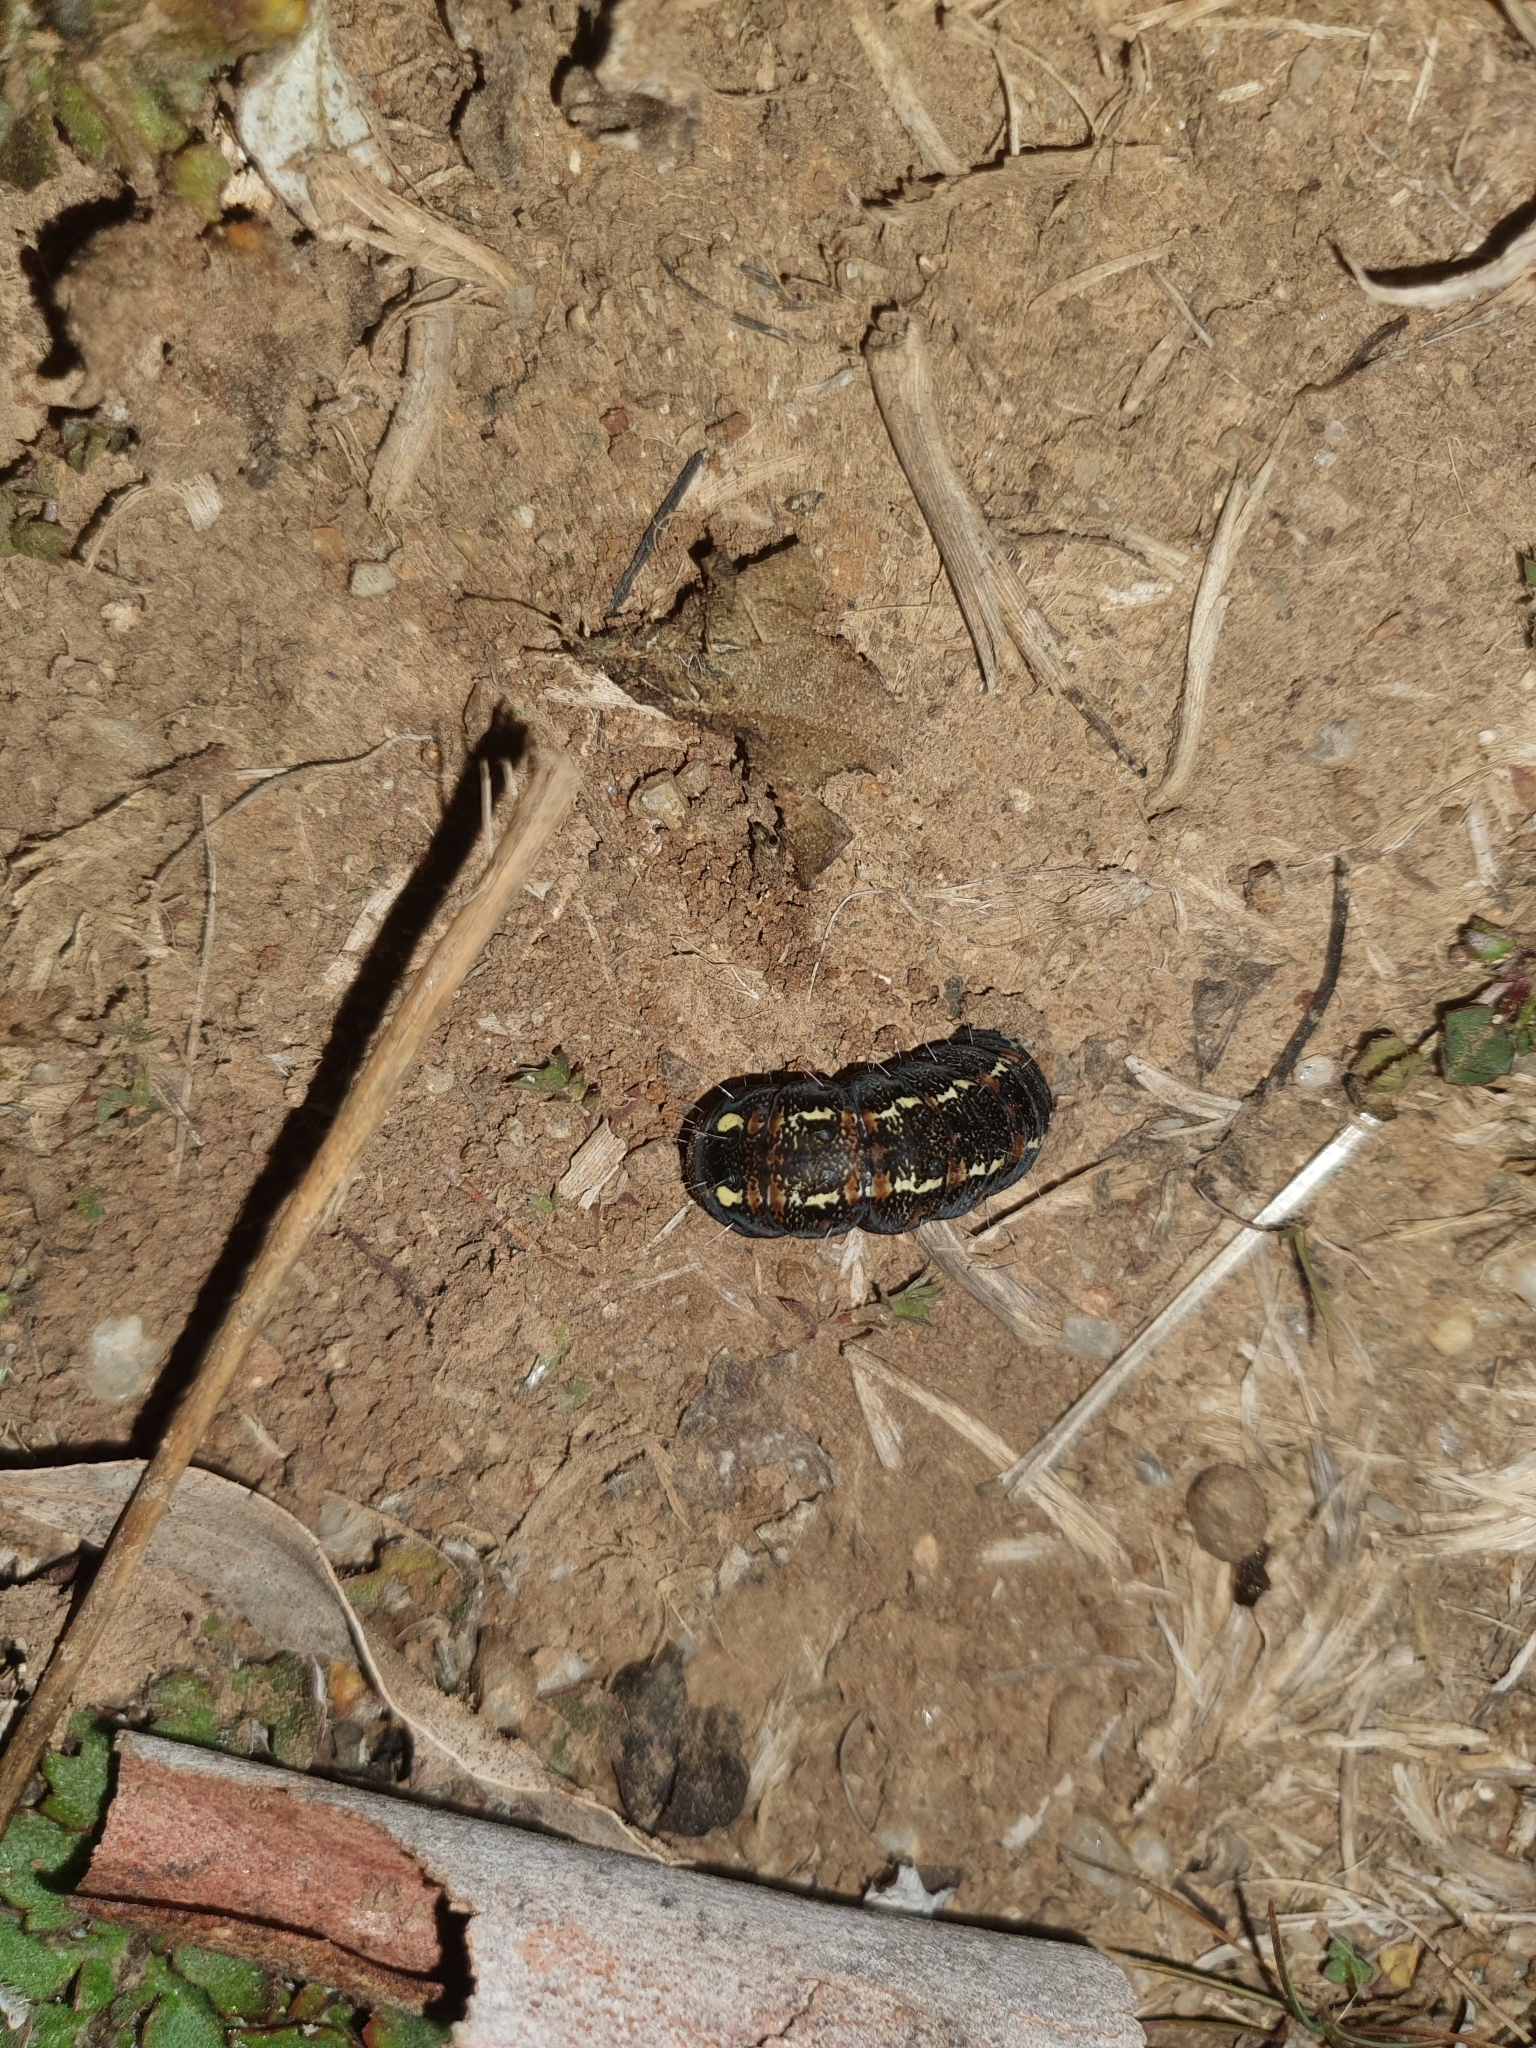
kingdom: Animalia
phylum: Arthropoda
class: Insecta
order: Lepidoptera
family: Noctuidae
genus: Apina
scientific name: Apina callisto
